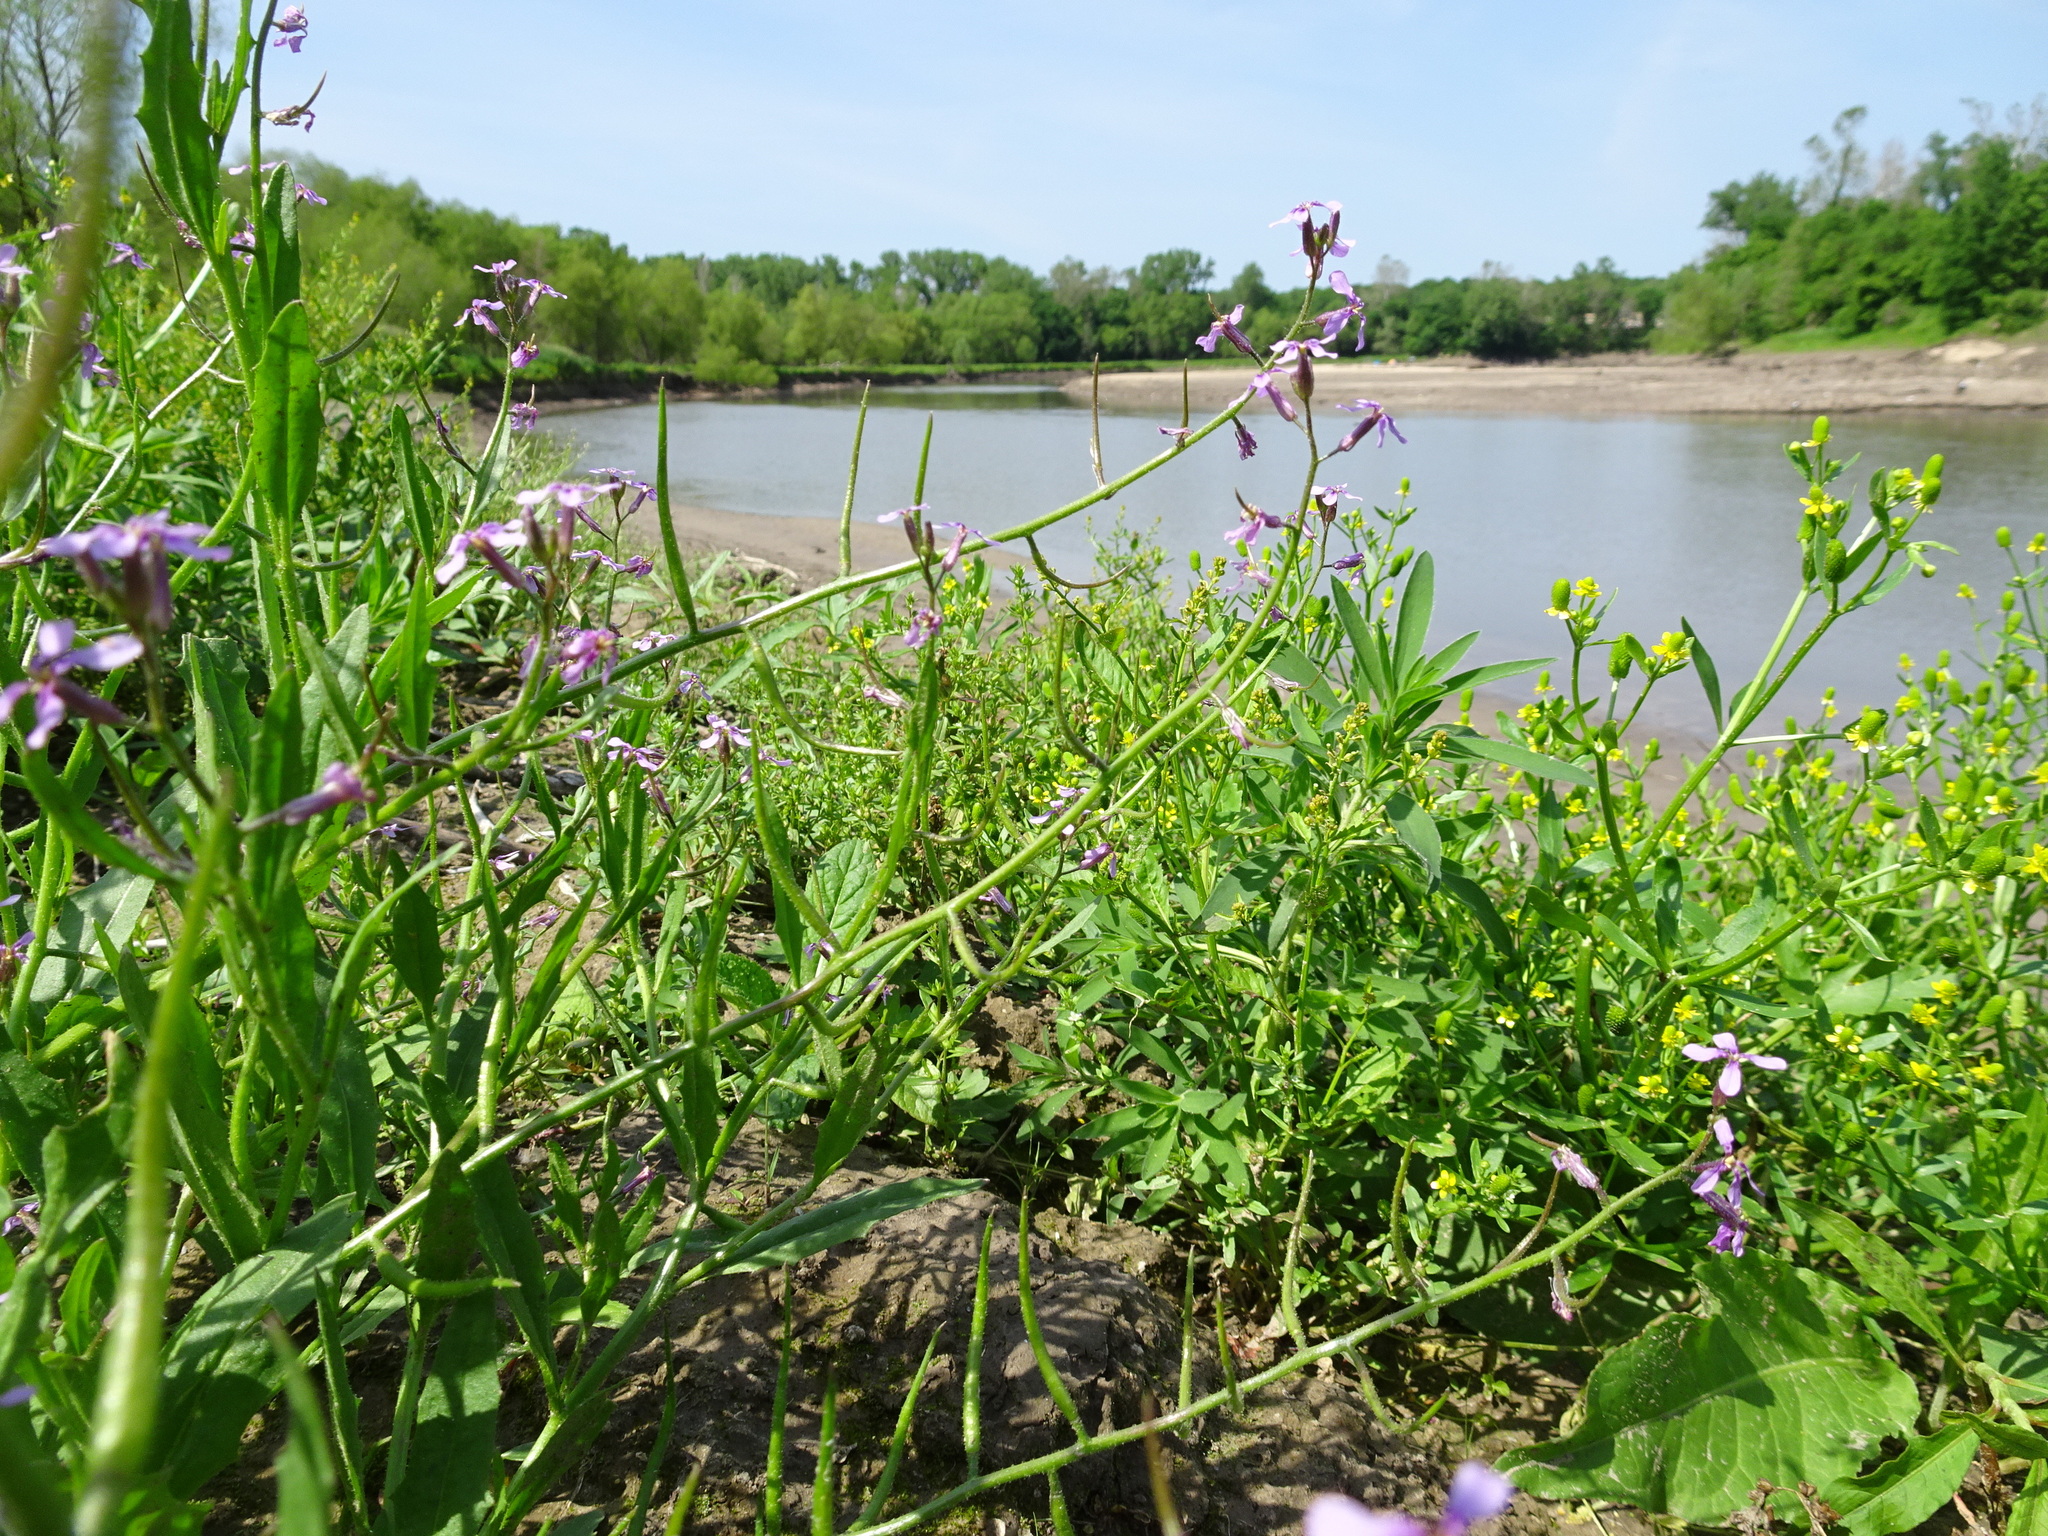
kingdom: Plantae
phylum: Tracheophyta
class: Magnoliopsida
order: Brassicales
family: Brassicaceae
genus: Chorispora
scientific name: Chorispora tenella
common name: Crossflower
